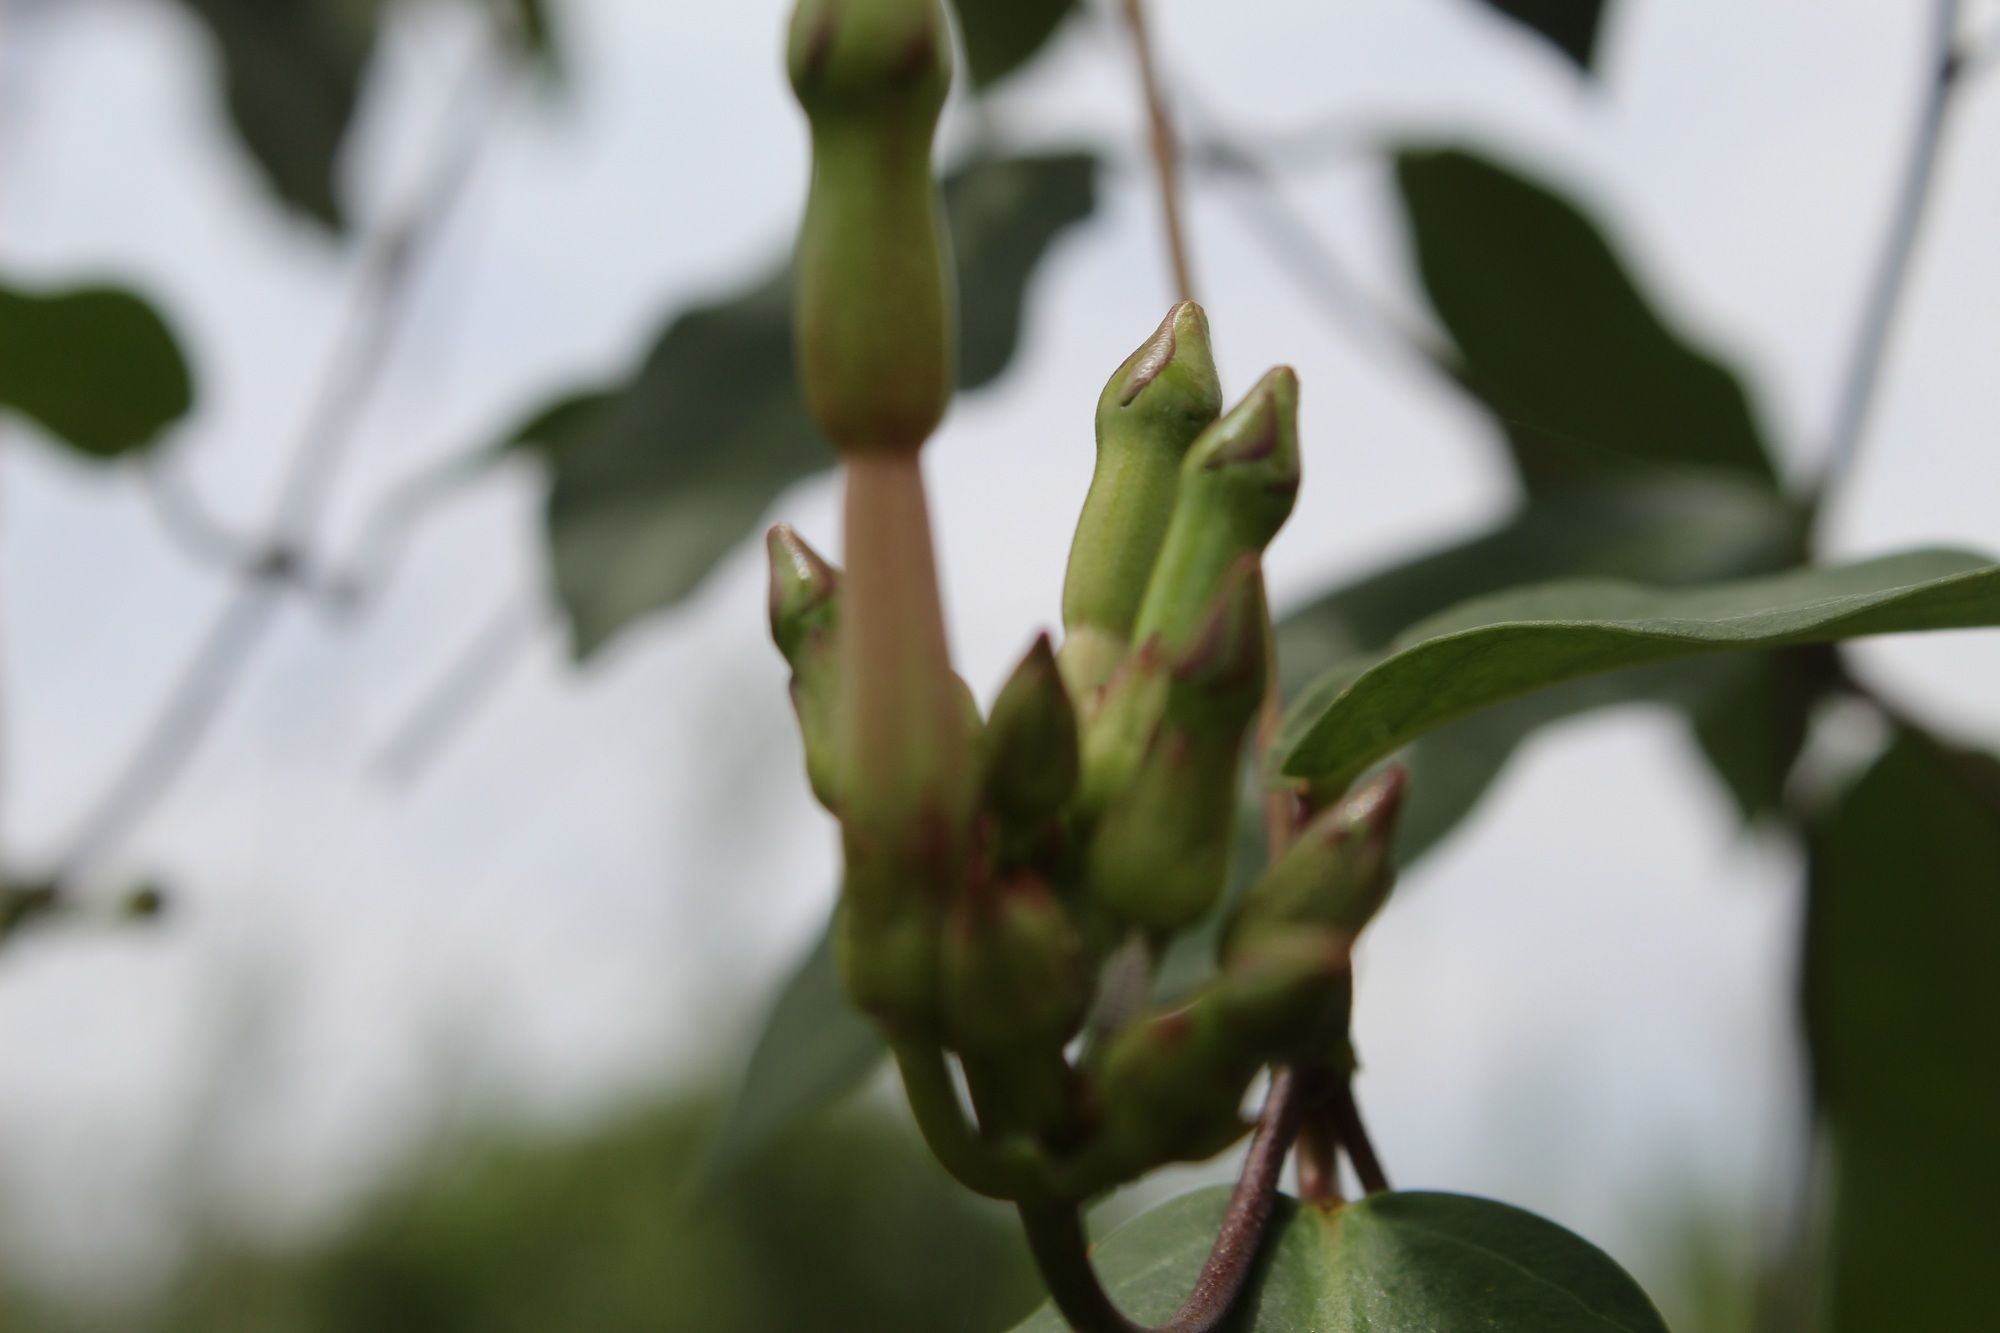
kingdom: Plantae
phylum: Tracheophyta
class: Magnoliopsida
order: Gentianales
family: Apocynaceae
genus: Mesechites
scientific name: Mesechites trifidus
